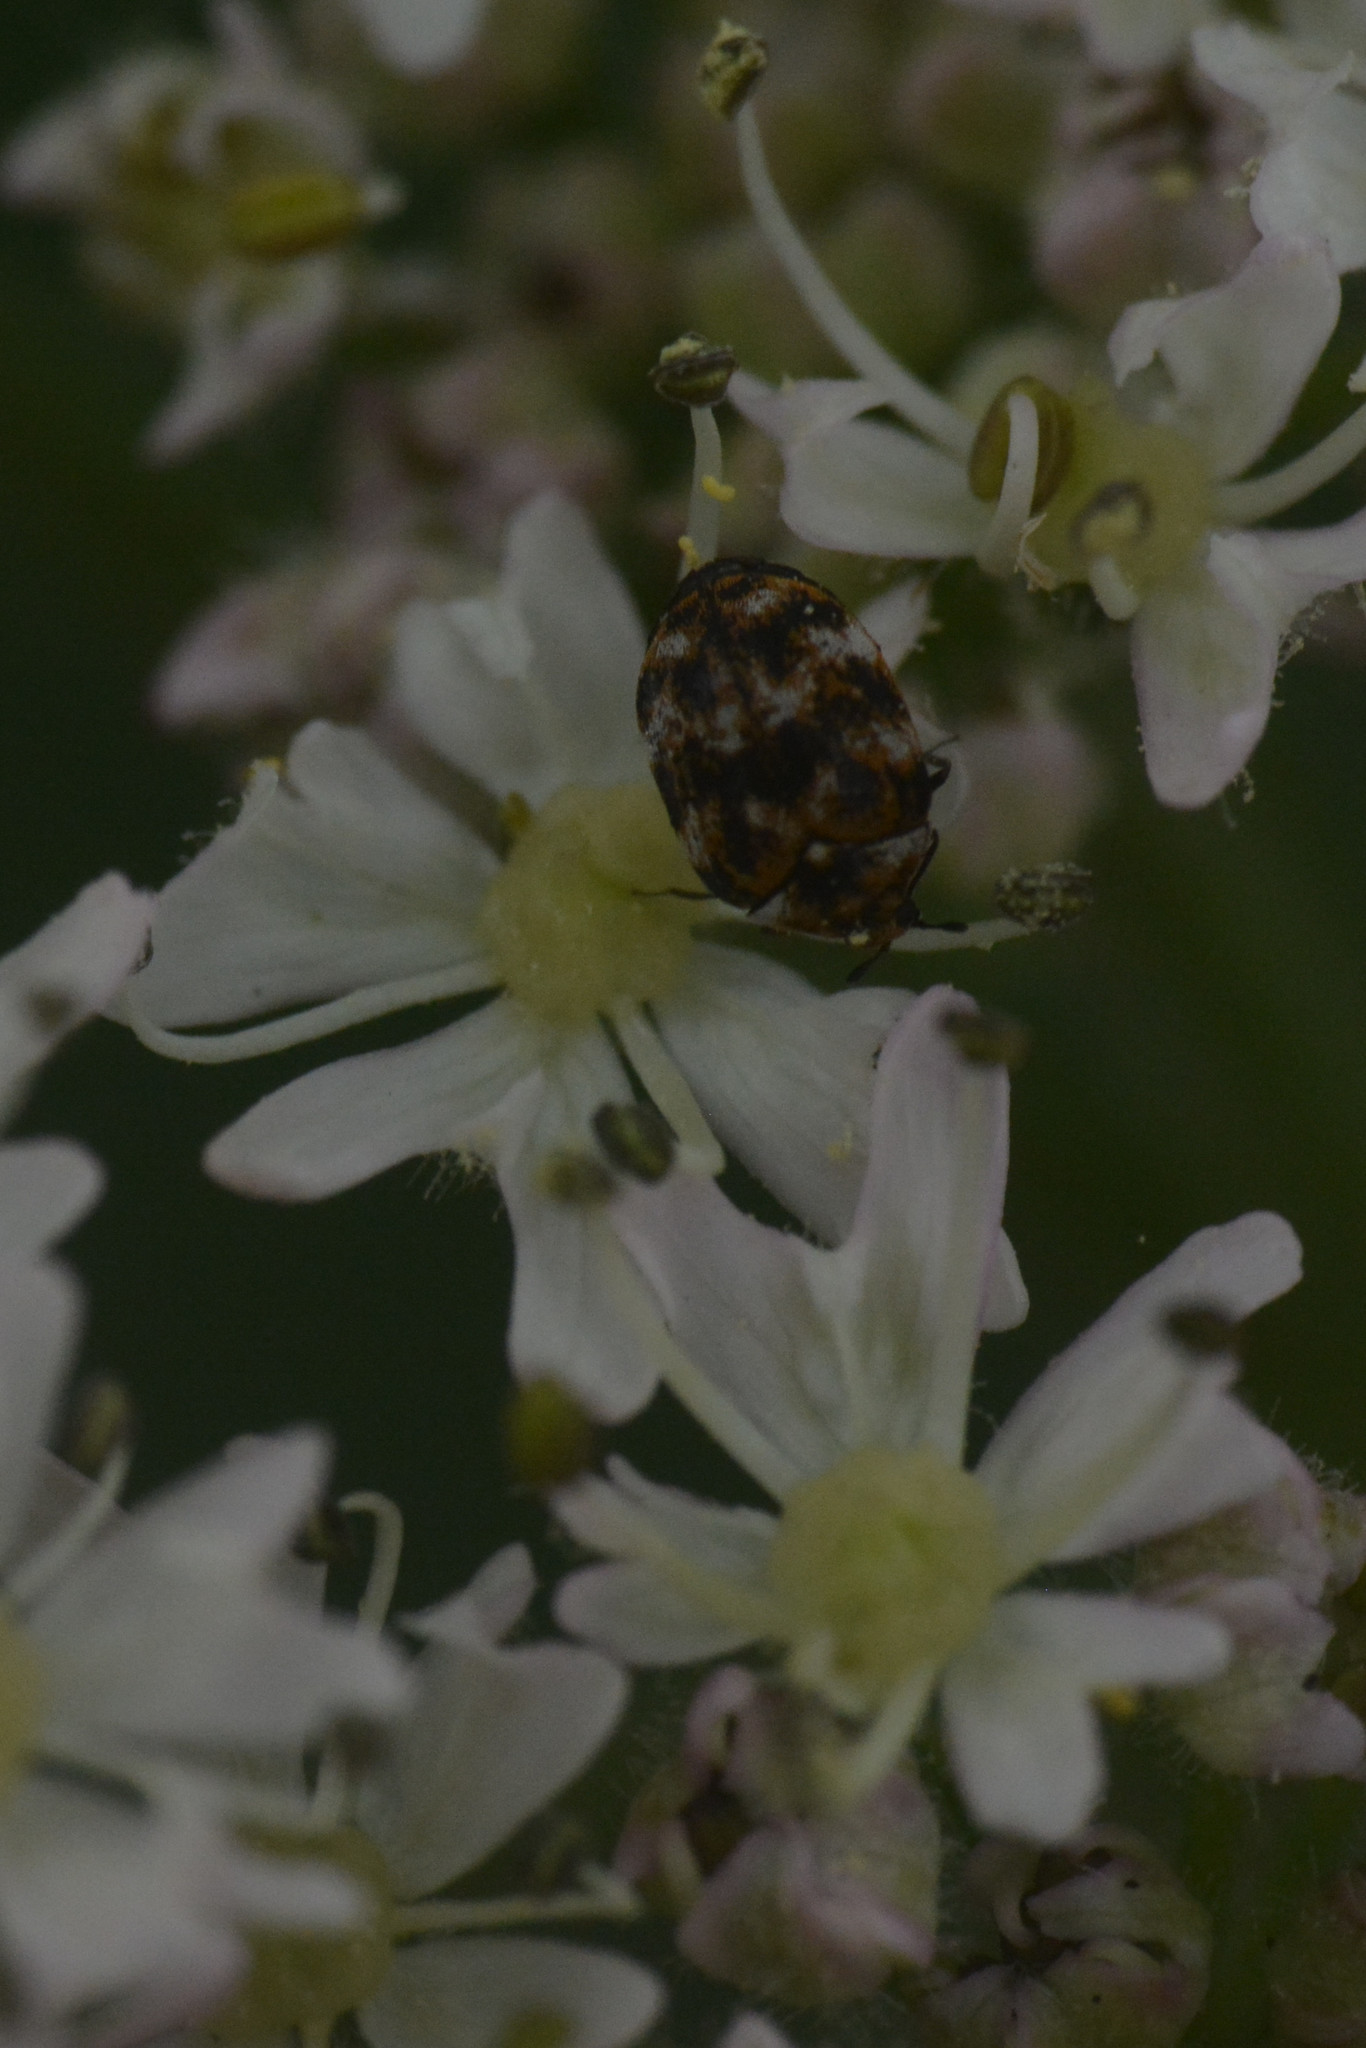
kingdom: Animalia
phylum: Arthropoda
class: Insecta
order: Coleoptera
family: Dermestidae
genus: Anthrenus
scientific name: Anthrenus verbasci
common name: Varied carpet beetle
